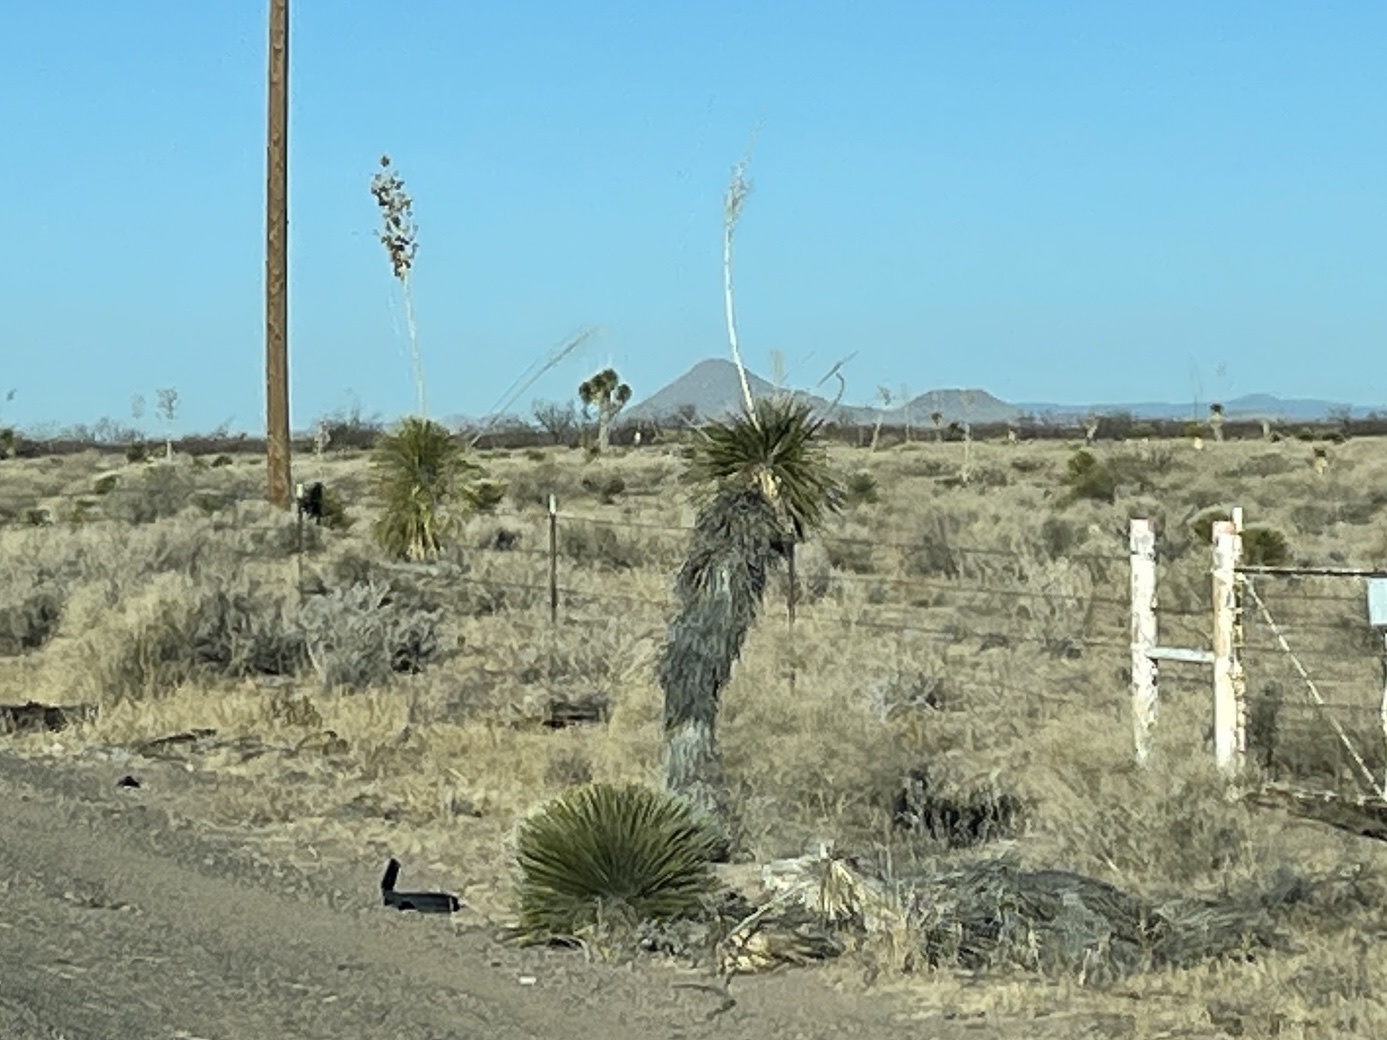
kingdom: Plantae
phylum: Tracheophyta
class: Liliopsida
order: Asparagales
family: Asparagaceae
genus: Yucca
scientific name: Yucca elata
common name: Palmella
